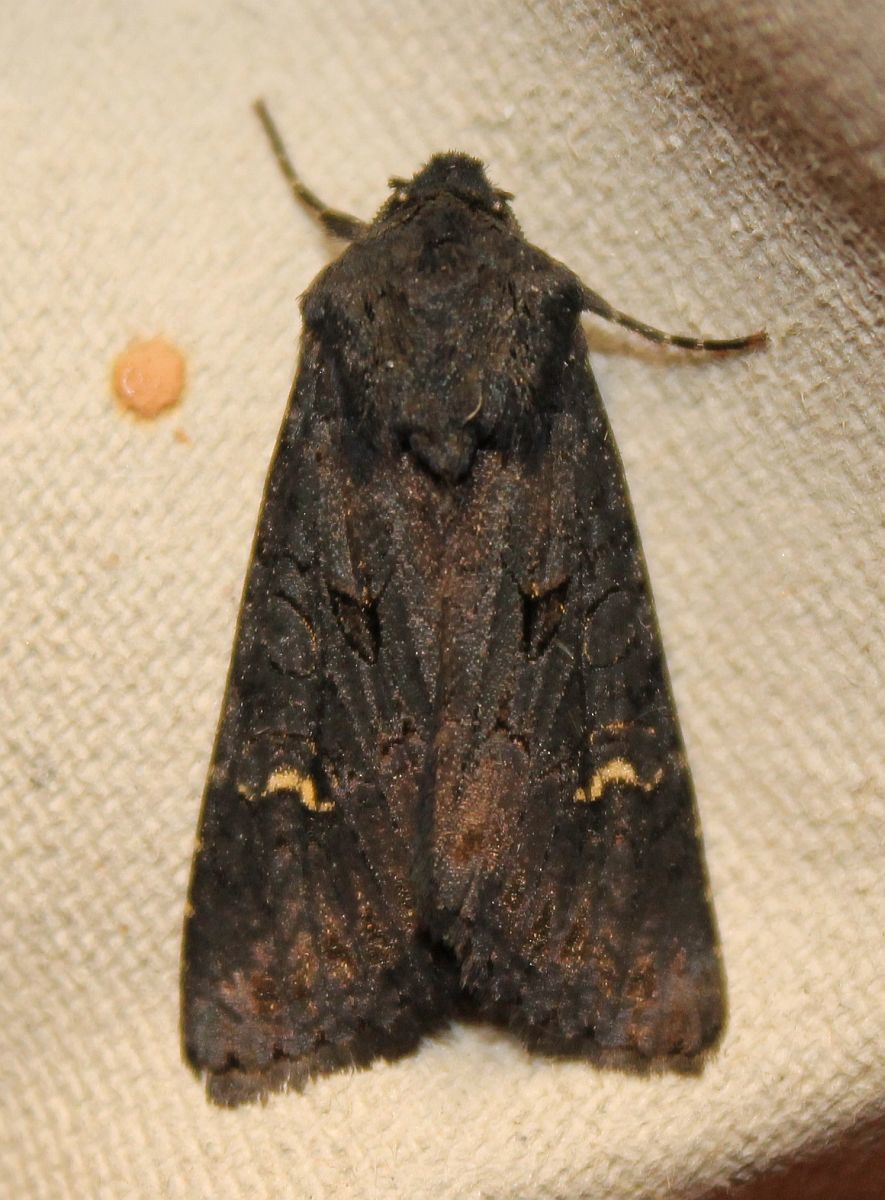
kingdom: Animalia
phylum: Arthropoda
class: Insecta
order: Lepidoptera
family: Noctuidae
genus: Aporophyla
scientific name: Aporophyla nigra
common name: Black rustic
